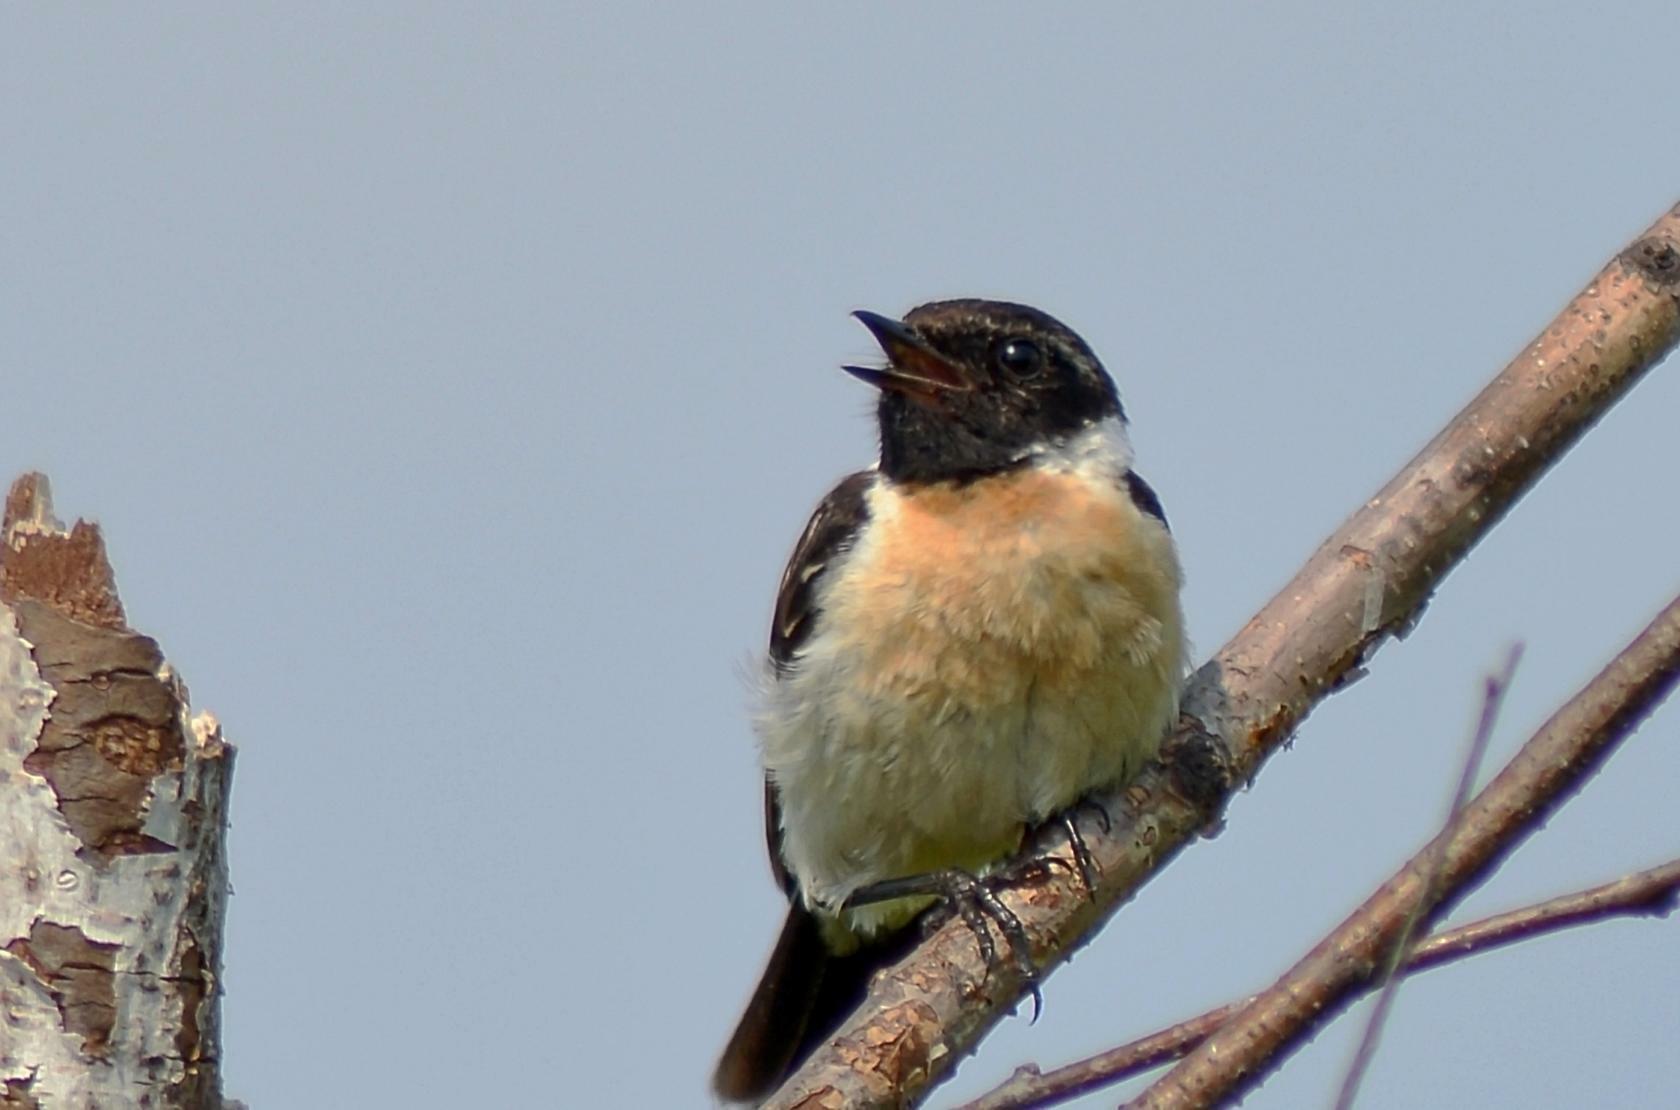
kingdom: Animalia
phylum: Chordata
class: Aves
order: Passeriformes
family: Muscicapidae
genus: Saxicola
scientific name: Saxicola maurus
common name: Siberian stonechat
